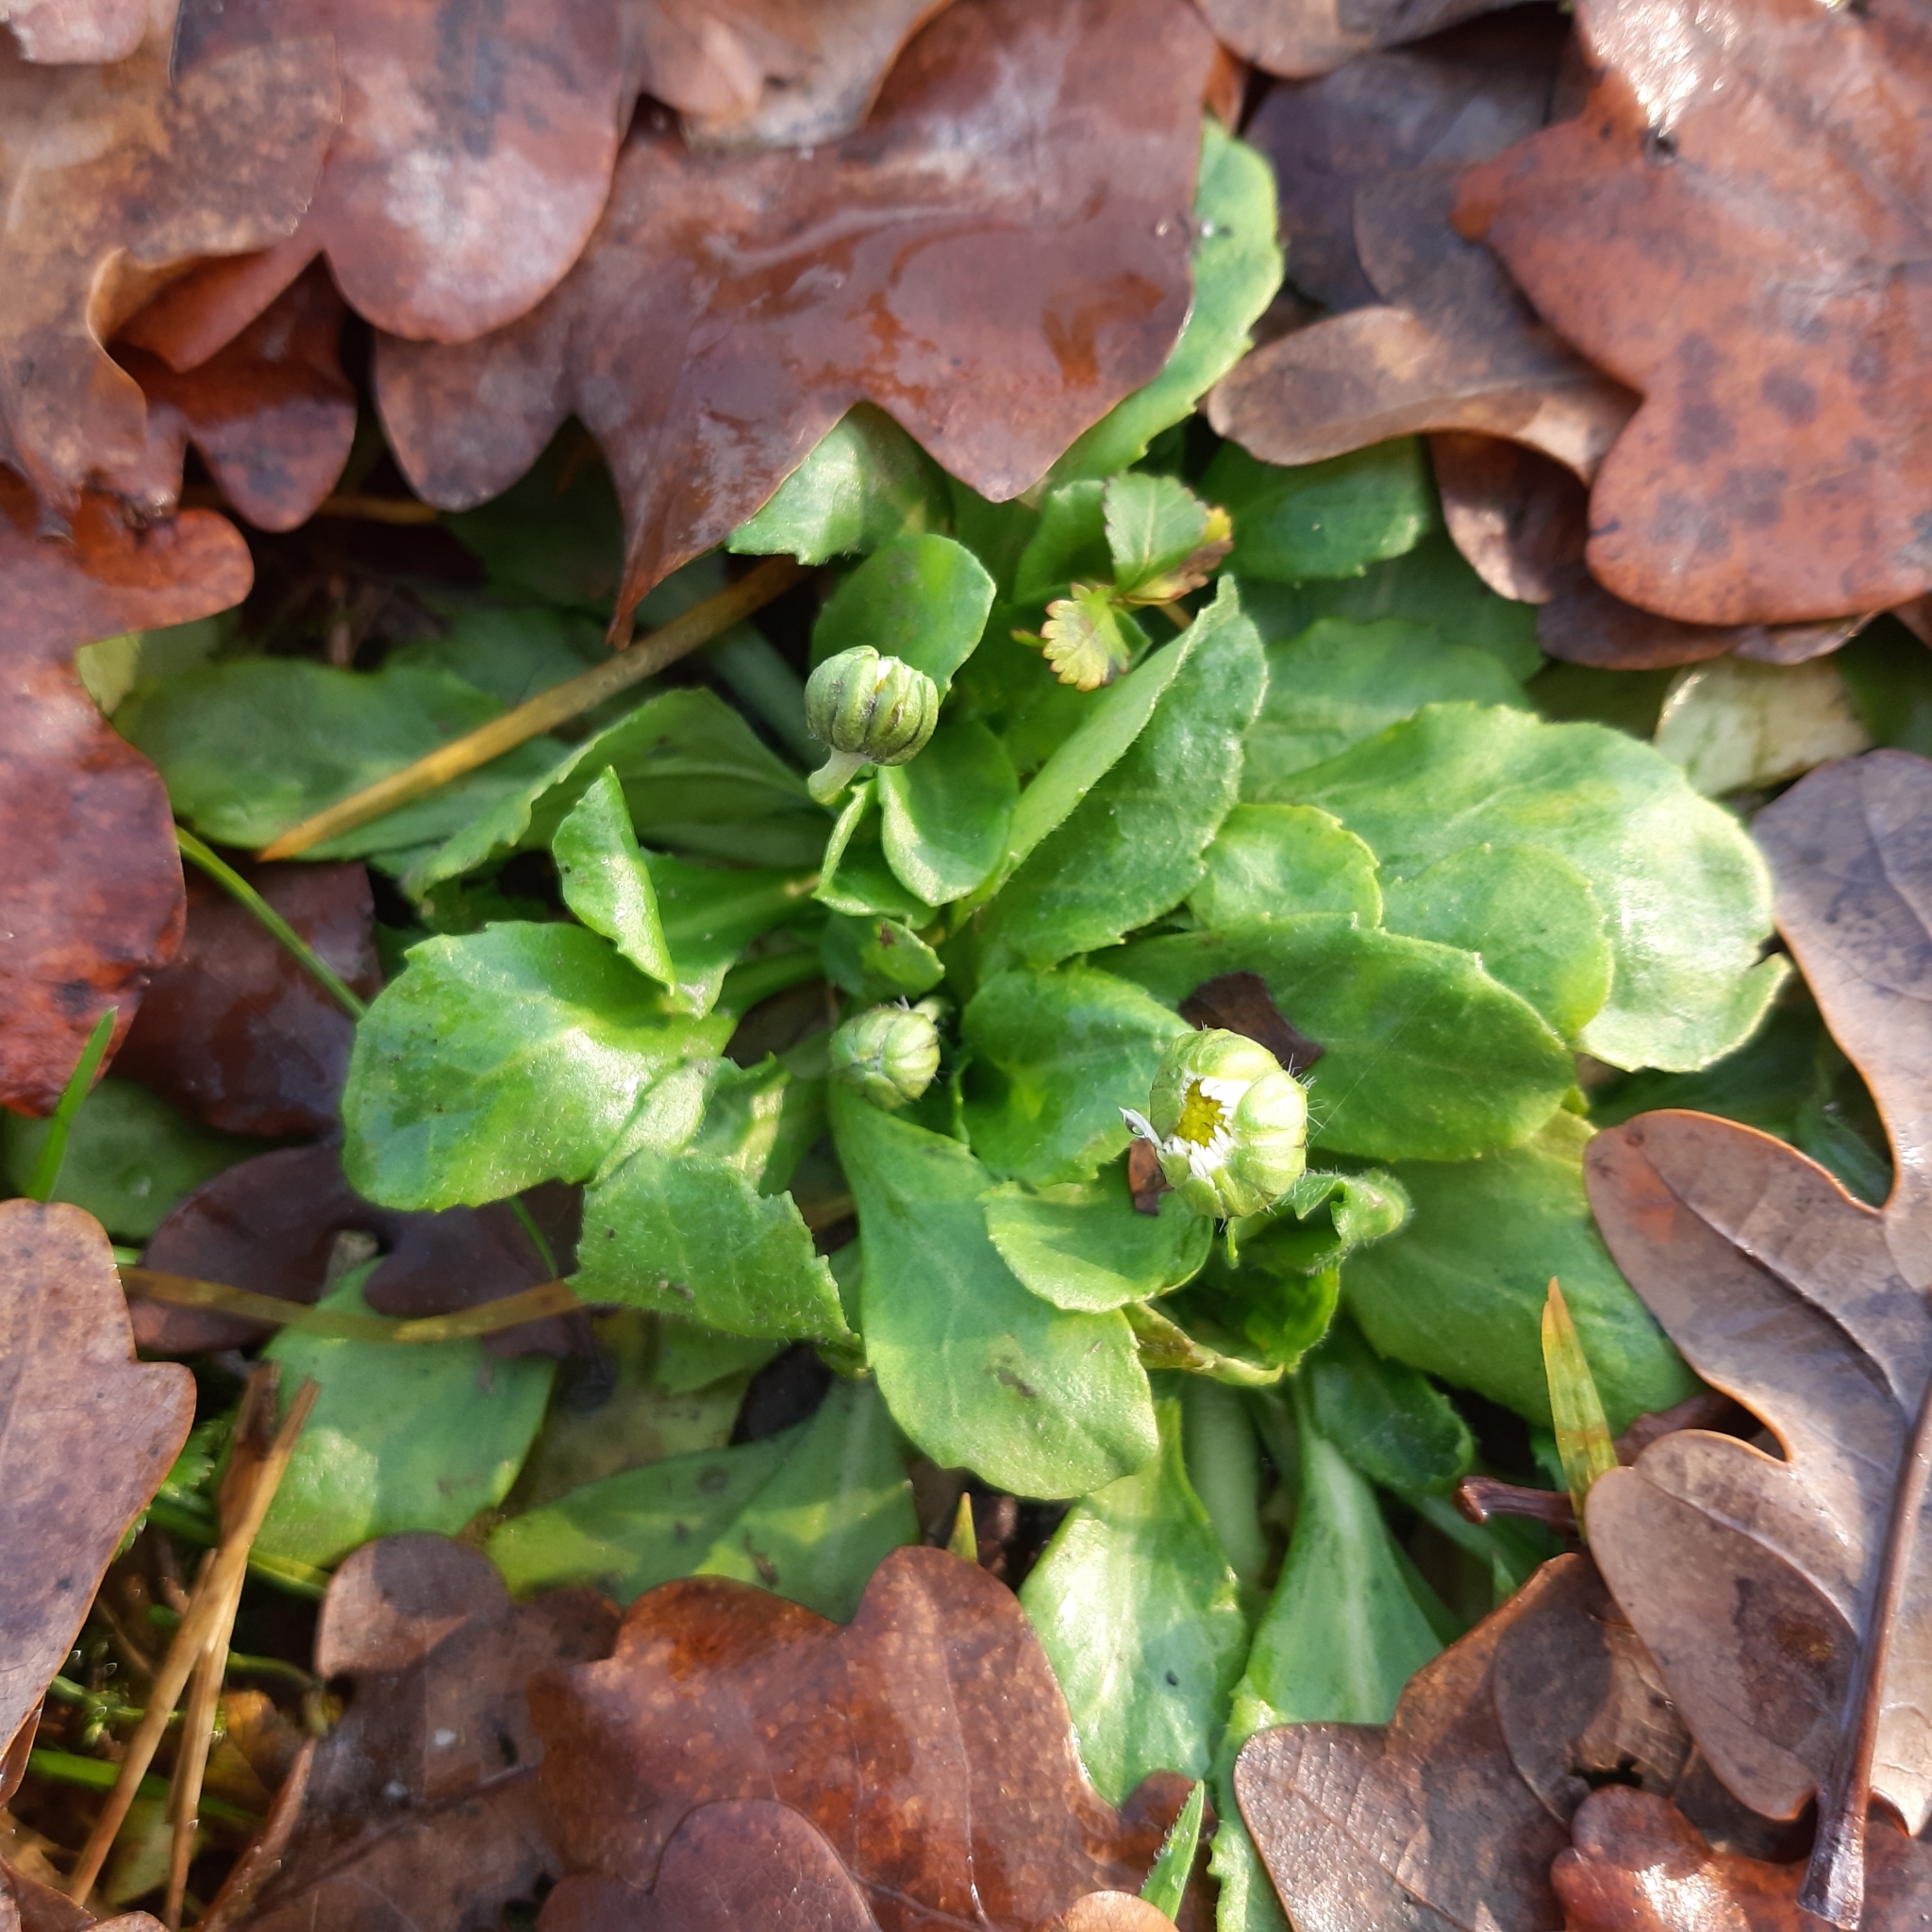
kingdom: Plantae
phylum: Tracheophyta
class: Magnoliopsida
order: Asterales
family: Asteraceae
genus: Bellis
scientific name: Bellis perennis
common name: Lawndaisy
